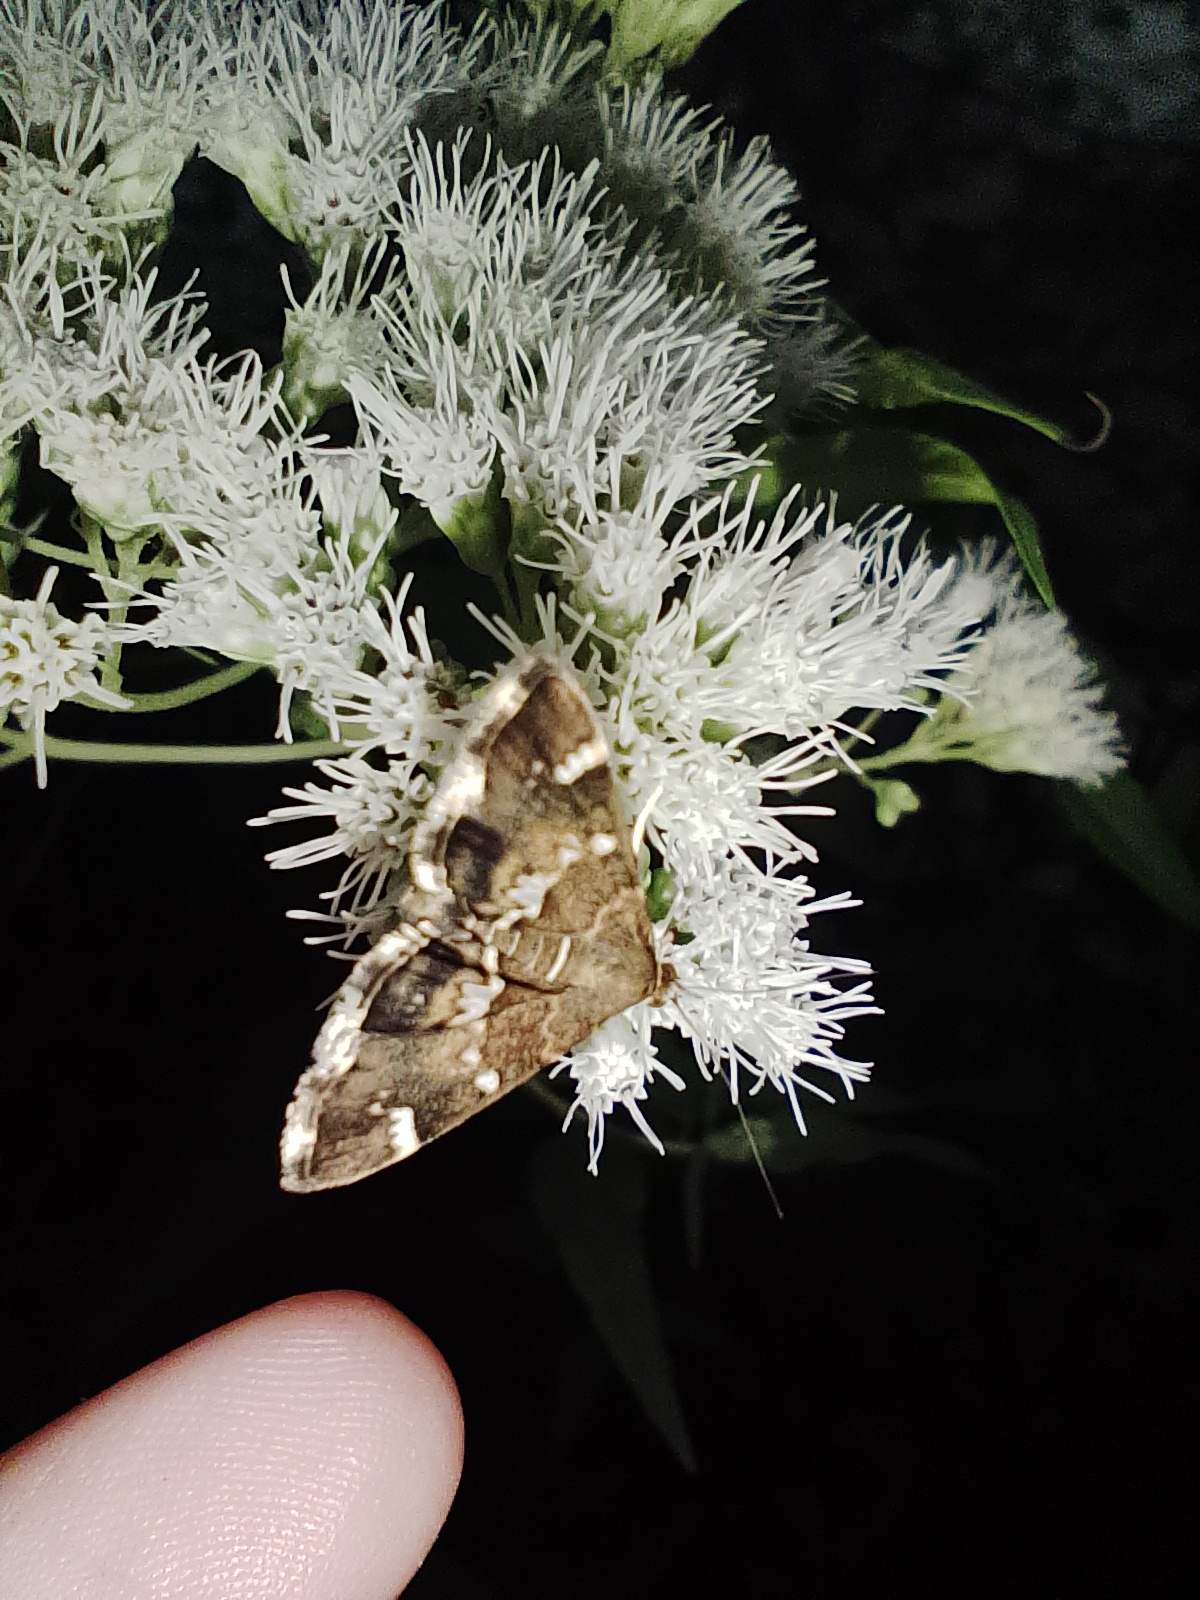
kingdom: Animalia
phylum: Arthropoda
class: Insecta
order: Lepidoptera
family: Crambidae
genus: Hymenia
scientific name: Hymenia perspectalis
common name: Spotted beet webworm
